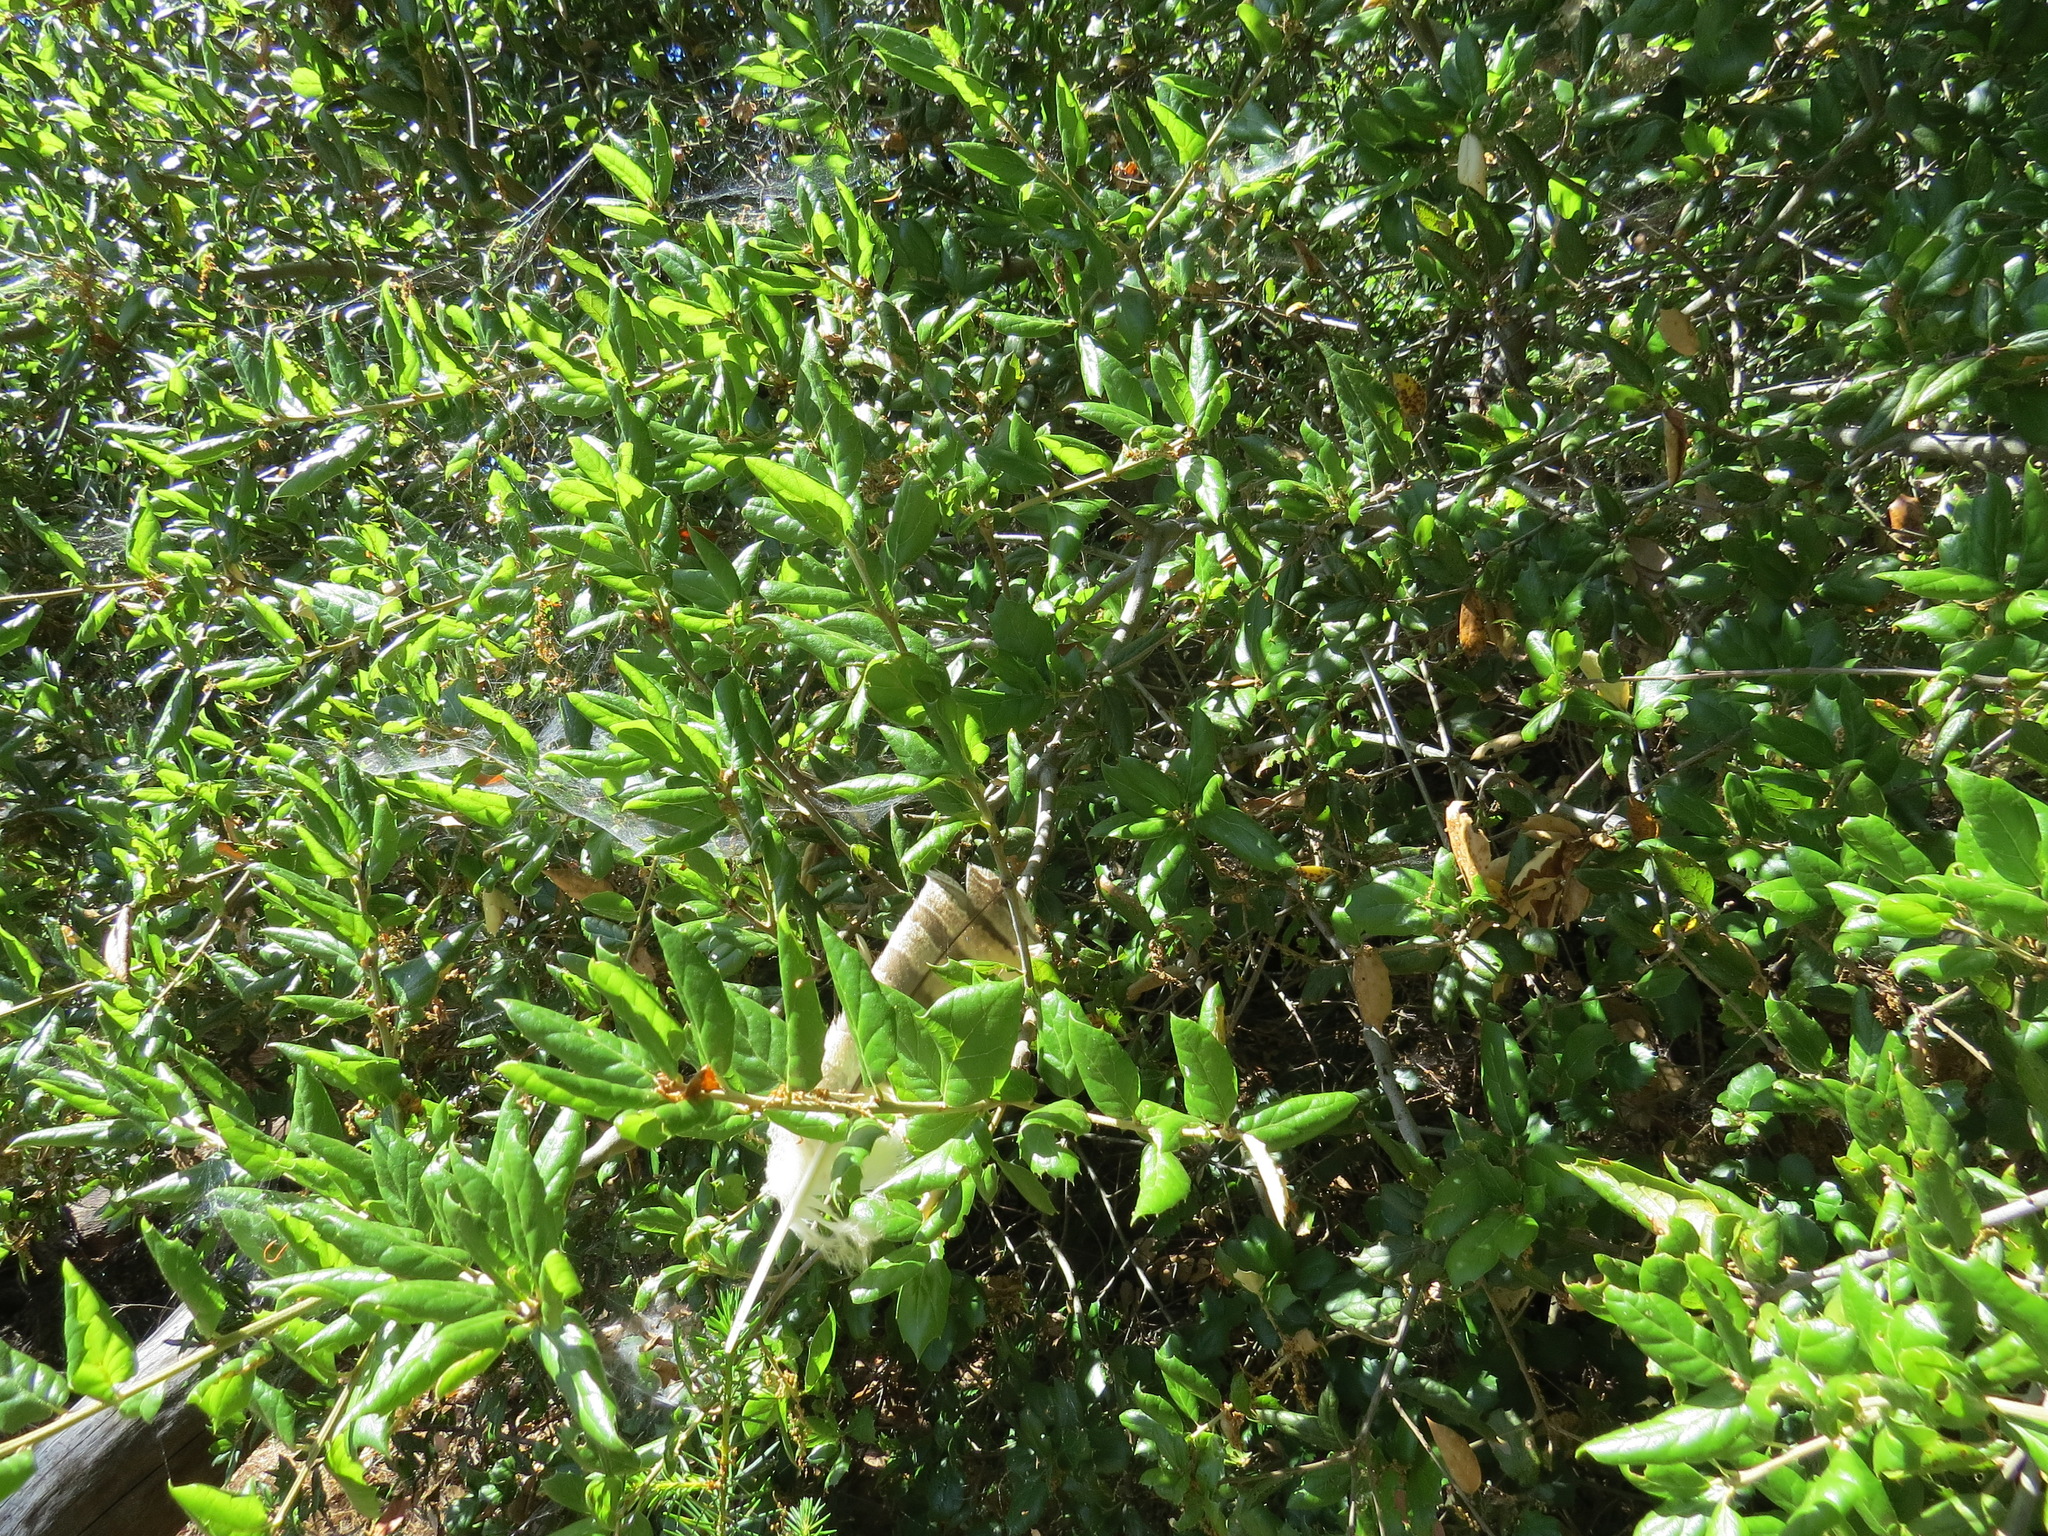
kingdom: Animalia
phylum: Chordata
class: Aves
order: Strigiformes
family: Strigidae
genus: Bubo
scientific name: Bubo virginianus
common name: Great horned owl
